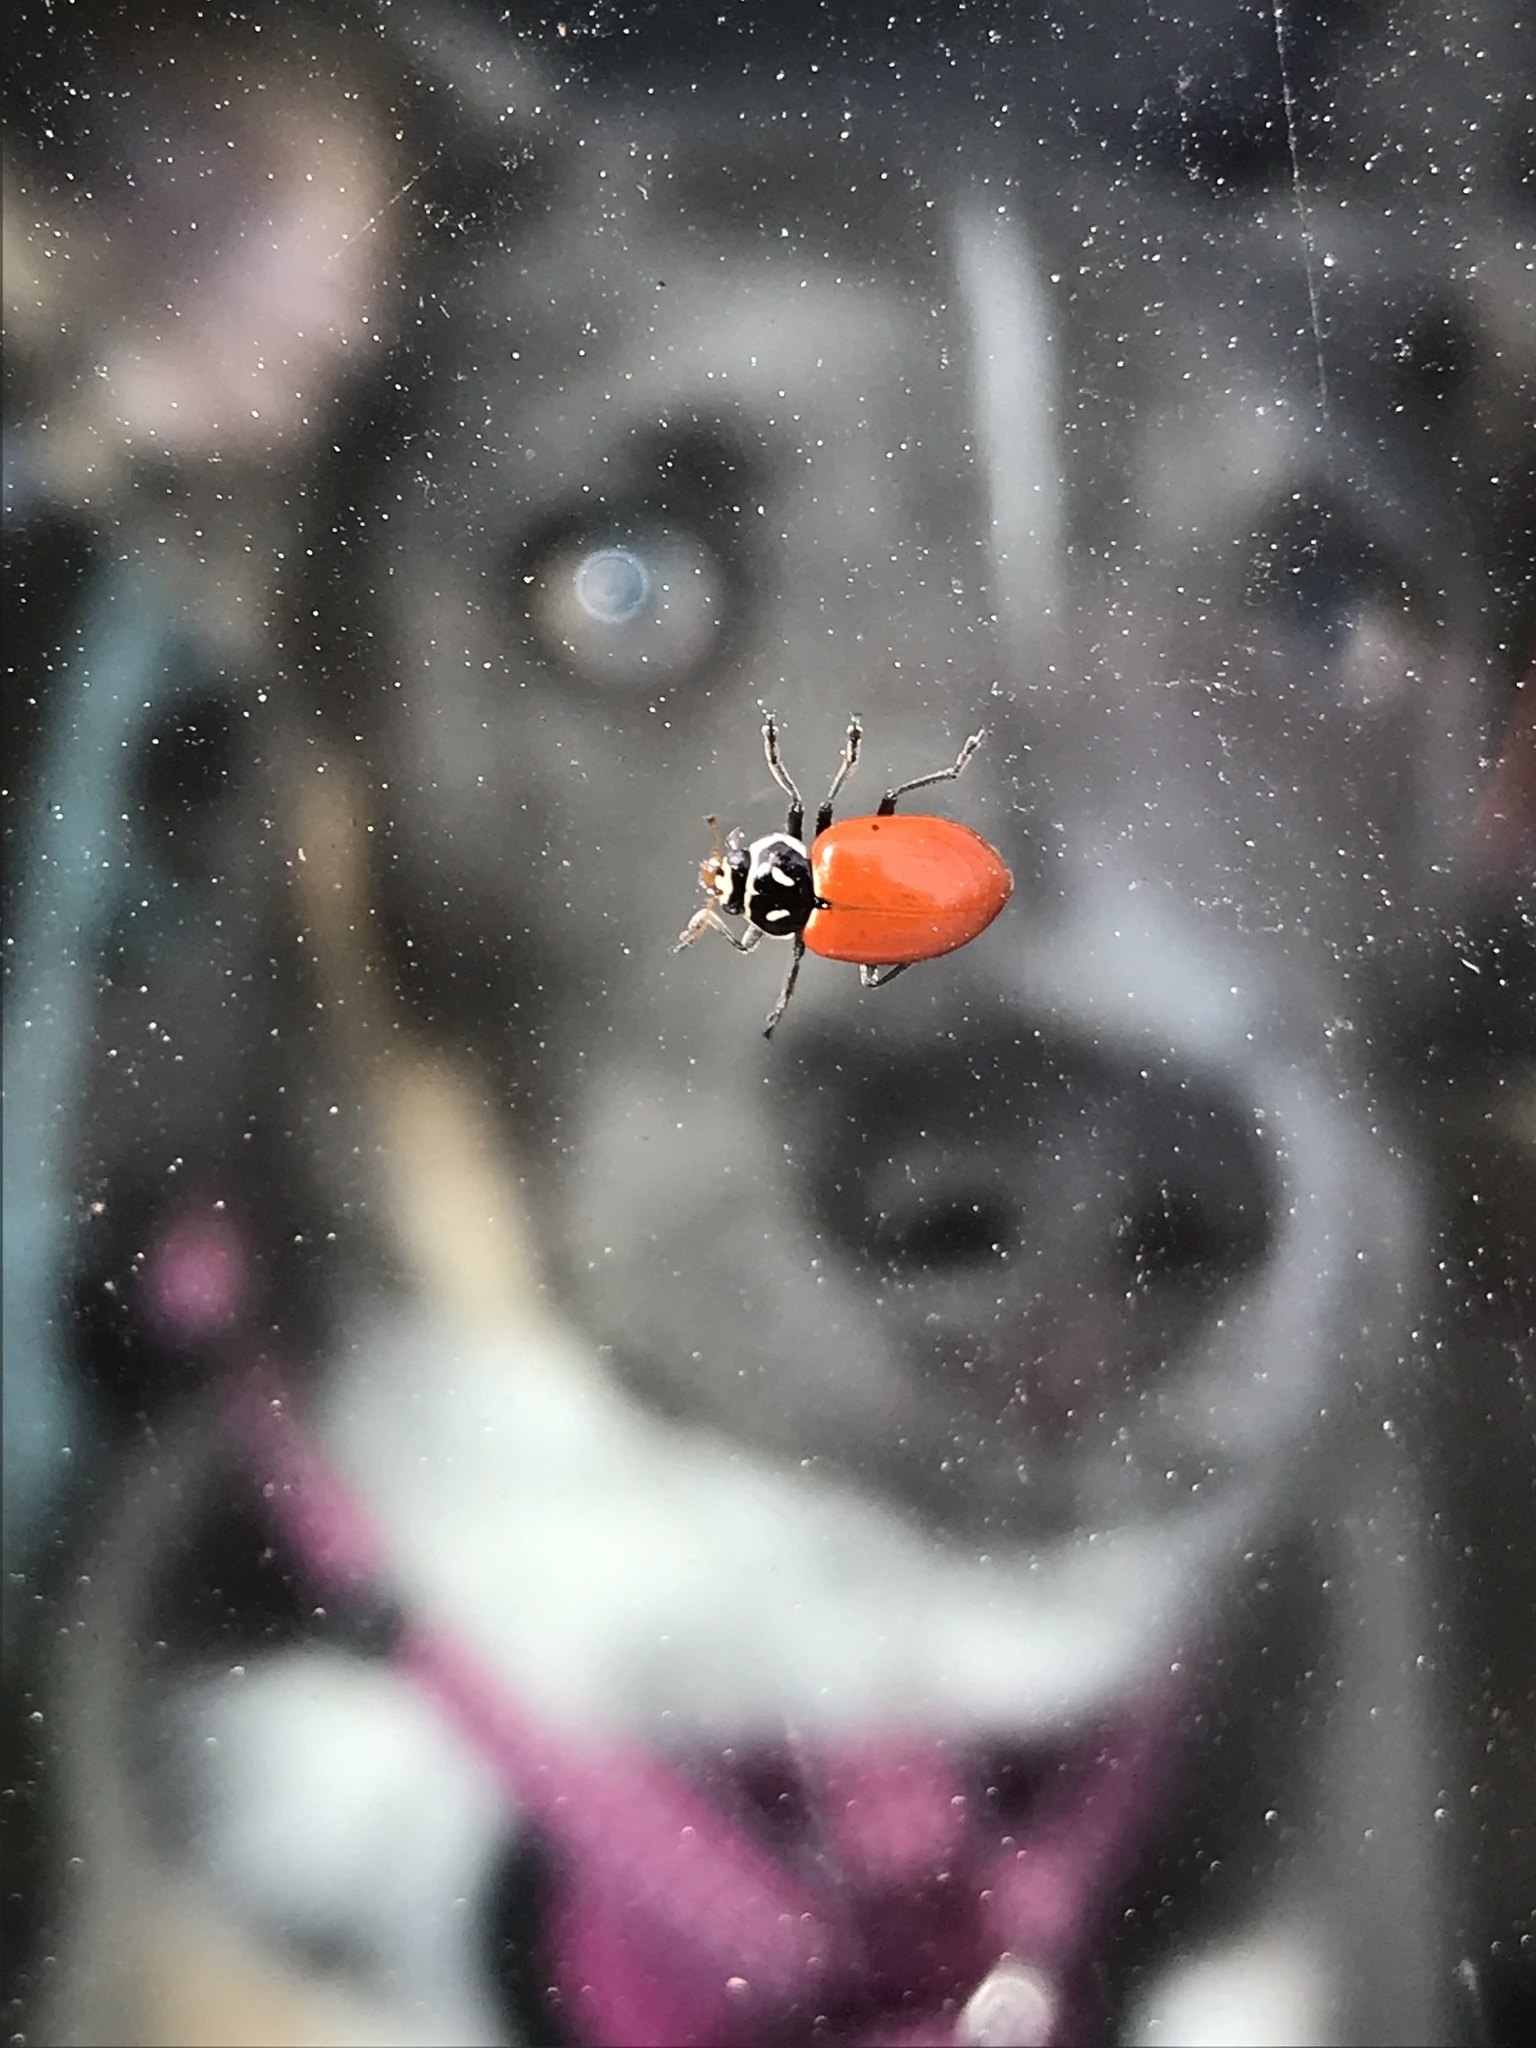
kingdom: Animalia
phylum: Arthropoda
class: Insecta
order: Coleoptera
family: Coccinellidae
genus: Hippodamia
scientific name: Hippodamia convergens
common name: Convergent lady beetle
